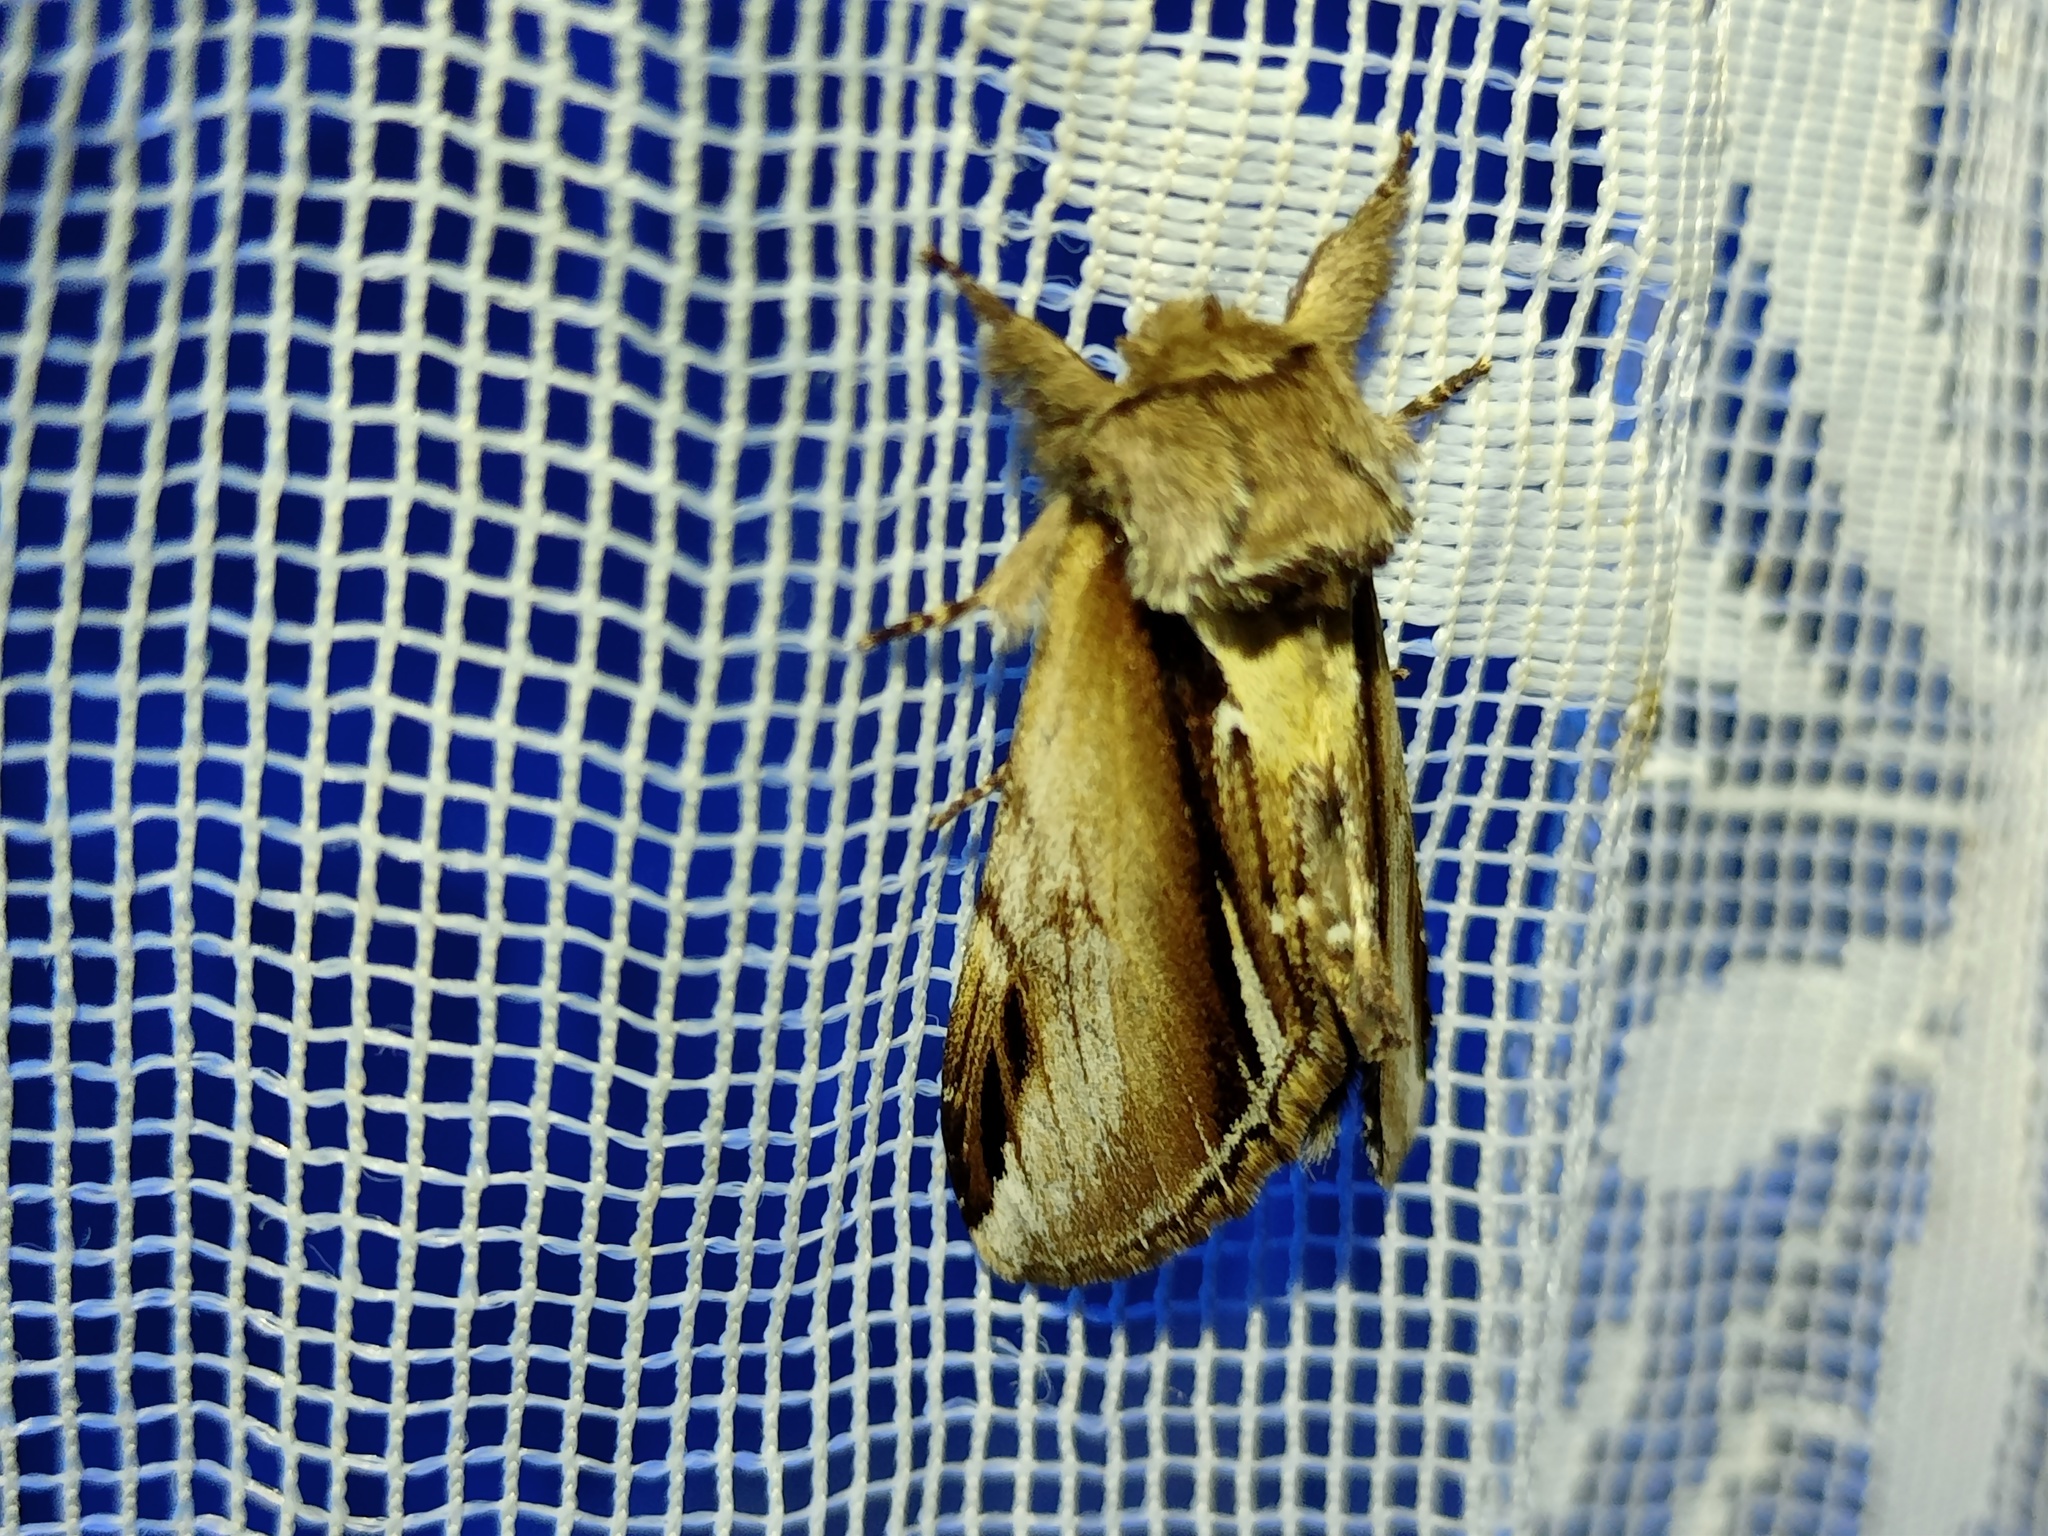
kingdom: Animalia
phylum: Arthropoda
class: Insecta
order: Lepidoptera
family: Notodontidae
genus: Pheosia
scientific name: Pheosia gnoma
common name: Lesser swallow prominent
